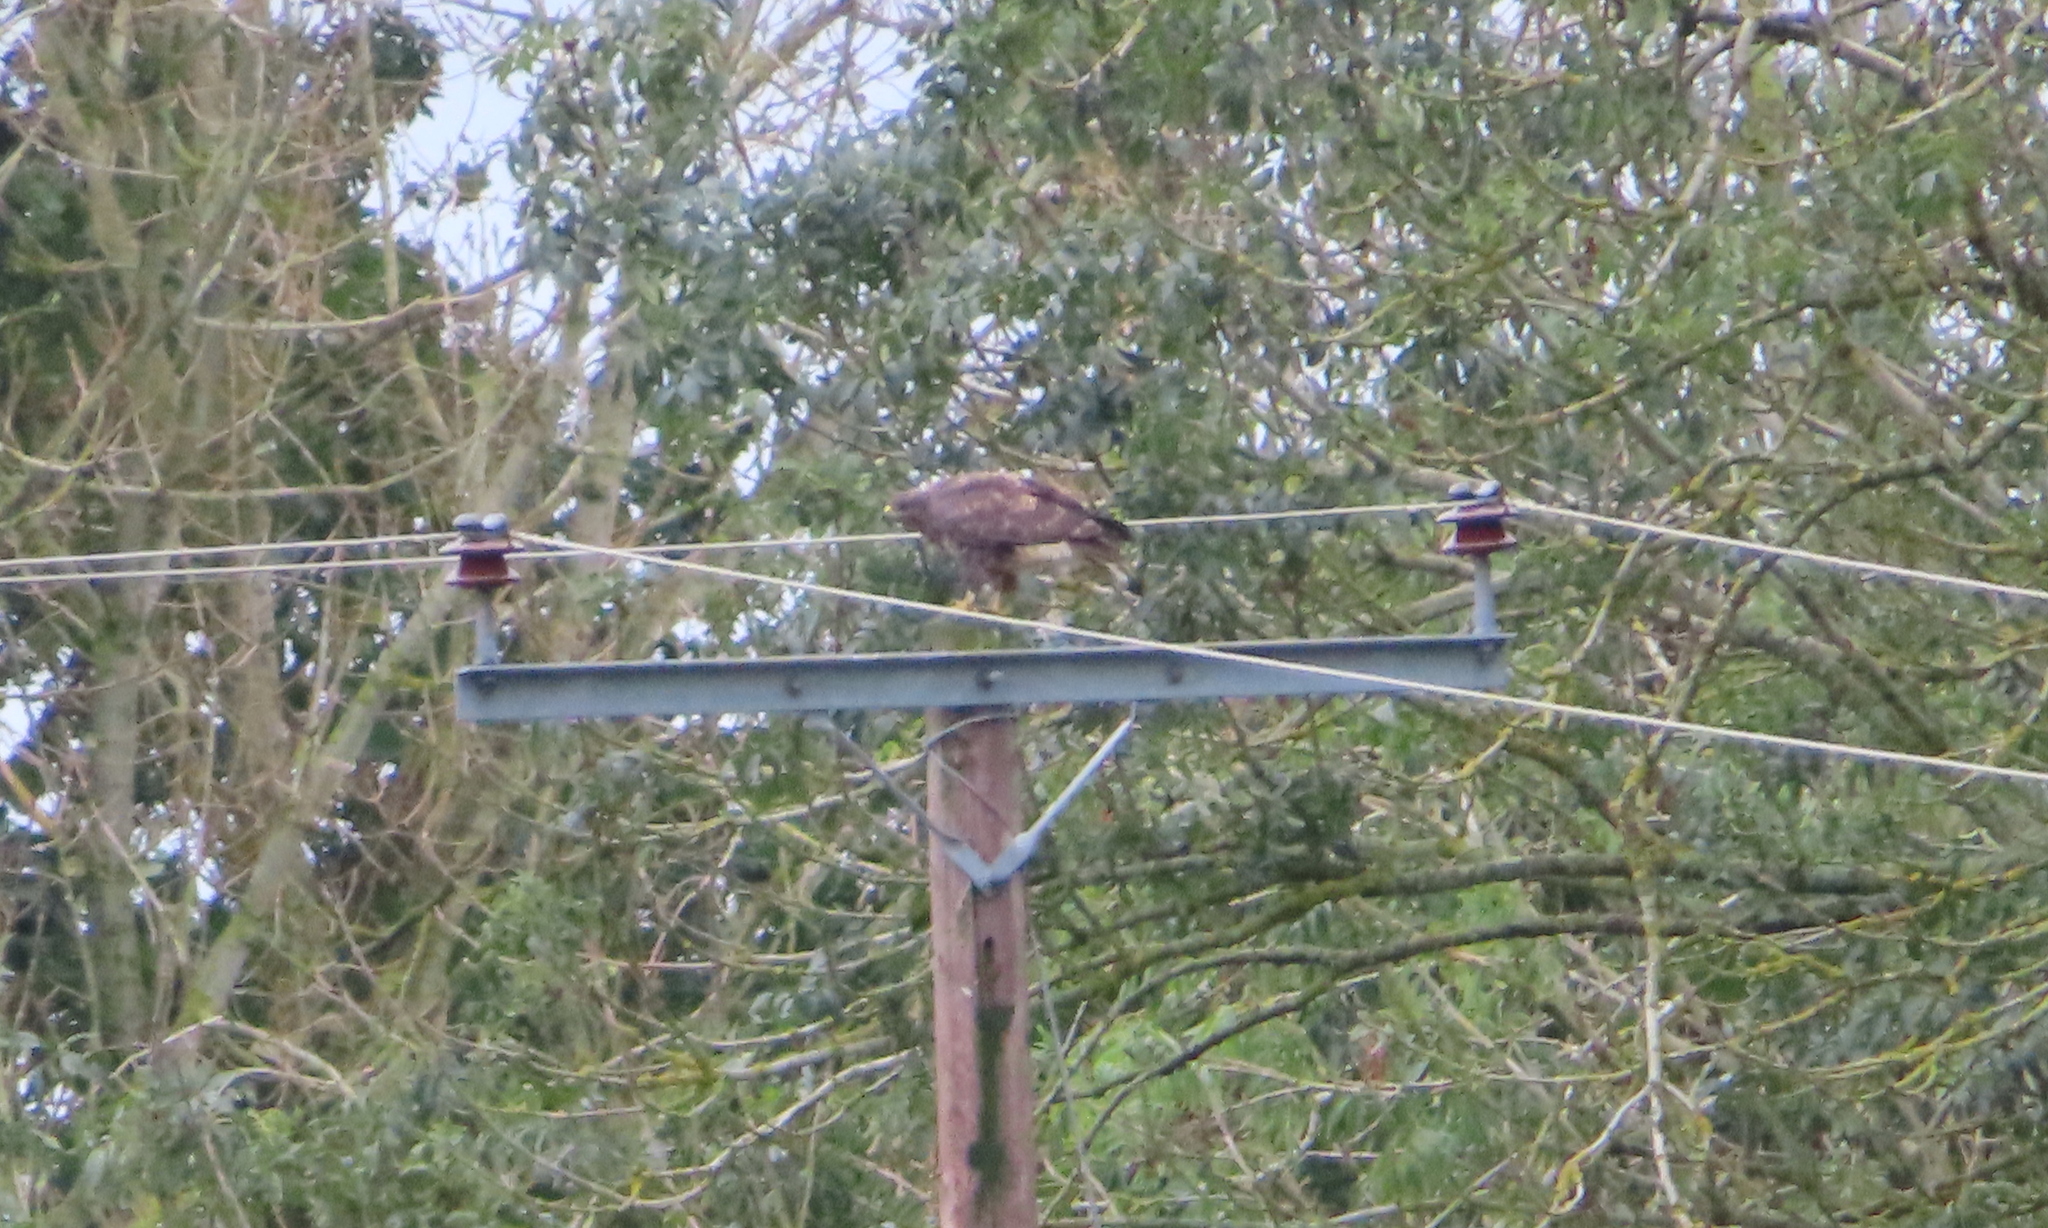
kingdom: Animalia
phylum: Chordata
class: Aves
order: Accipitriformes
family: Accipitridae
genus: Buteo
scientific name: Buteo buteo
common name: Common buzzard
